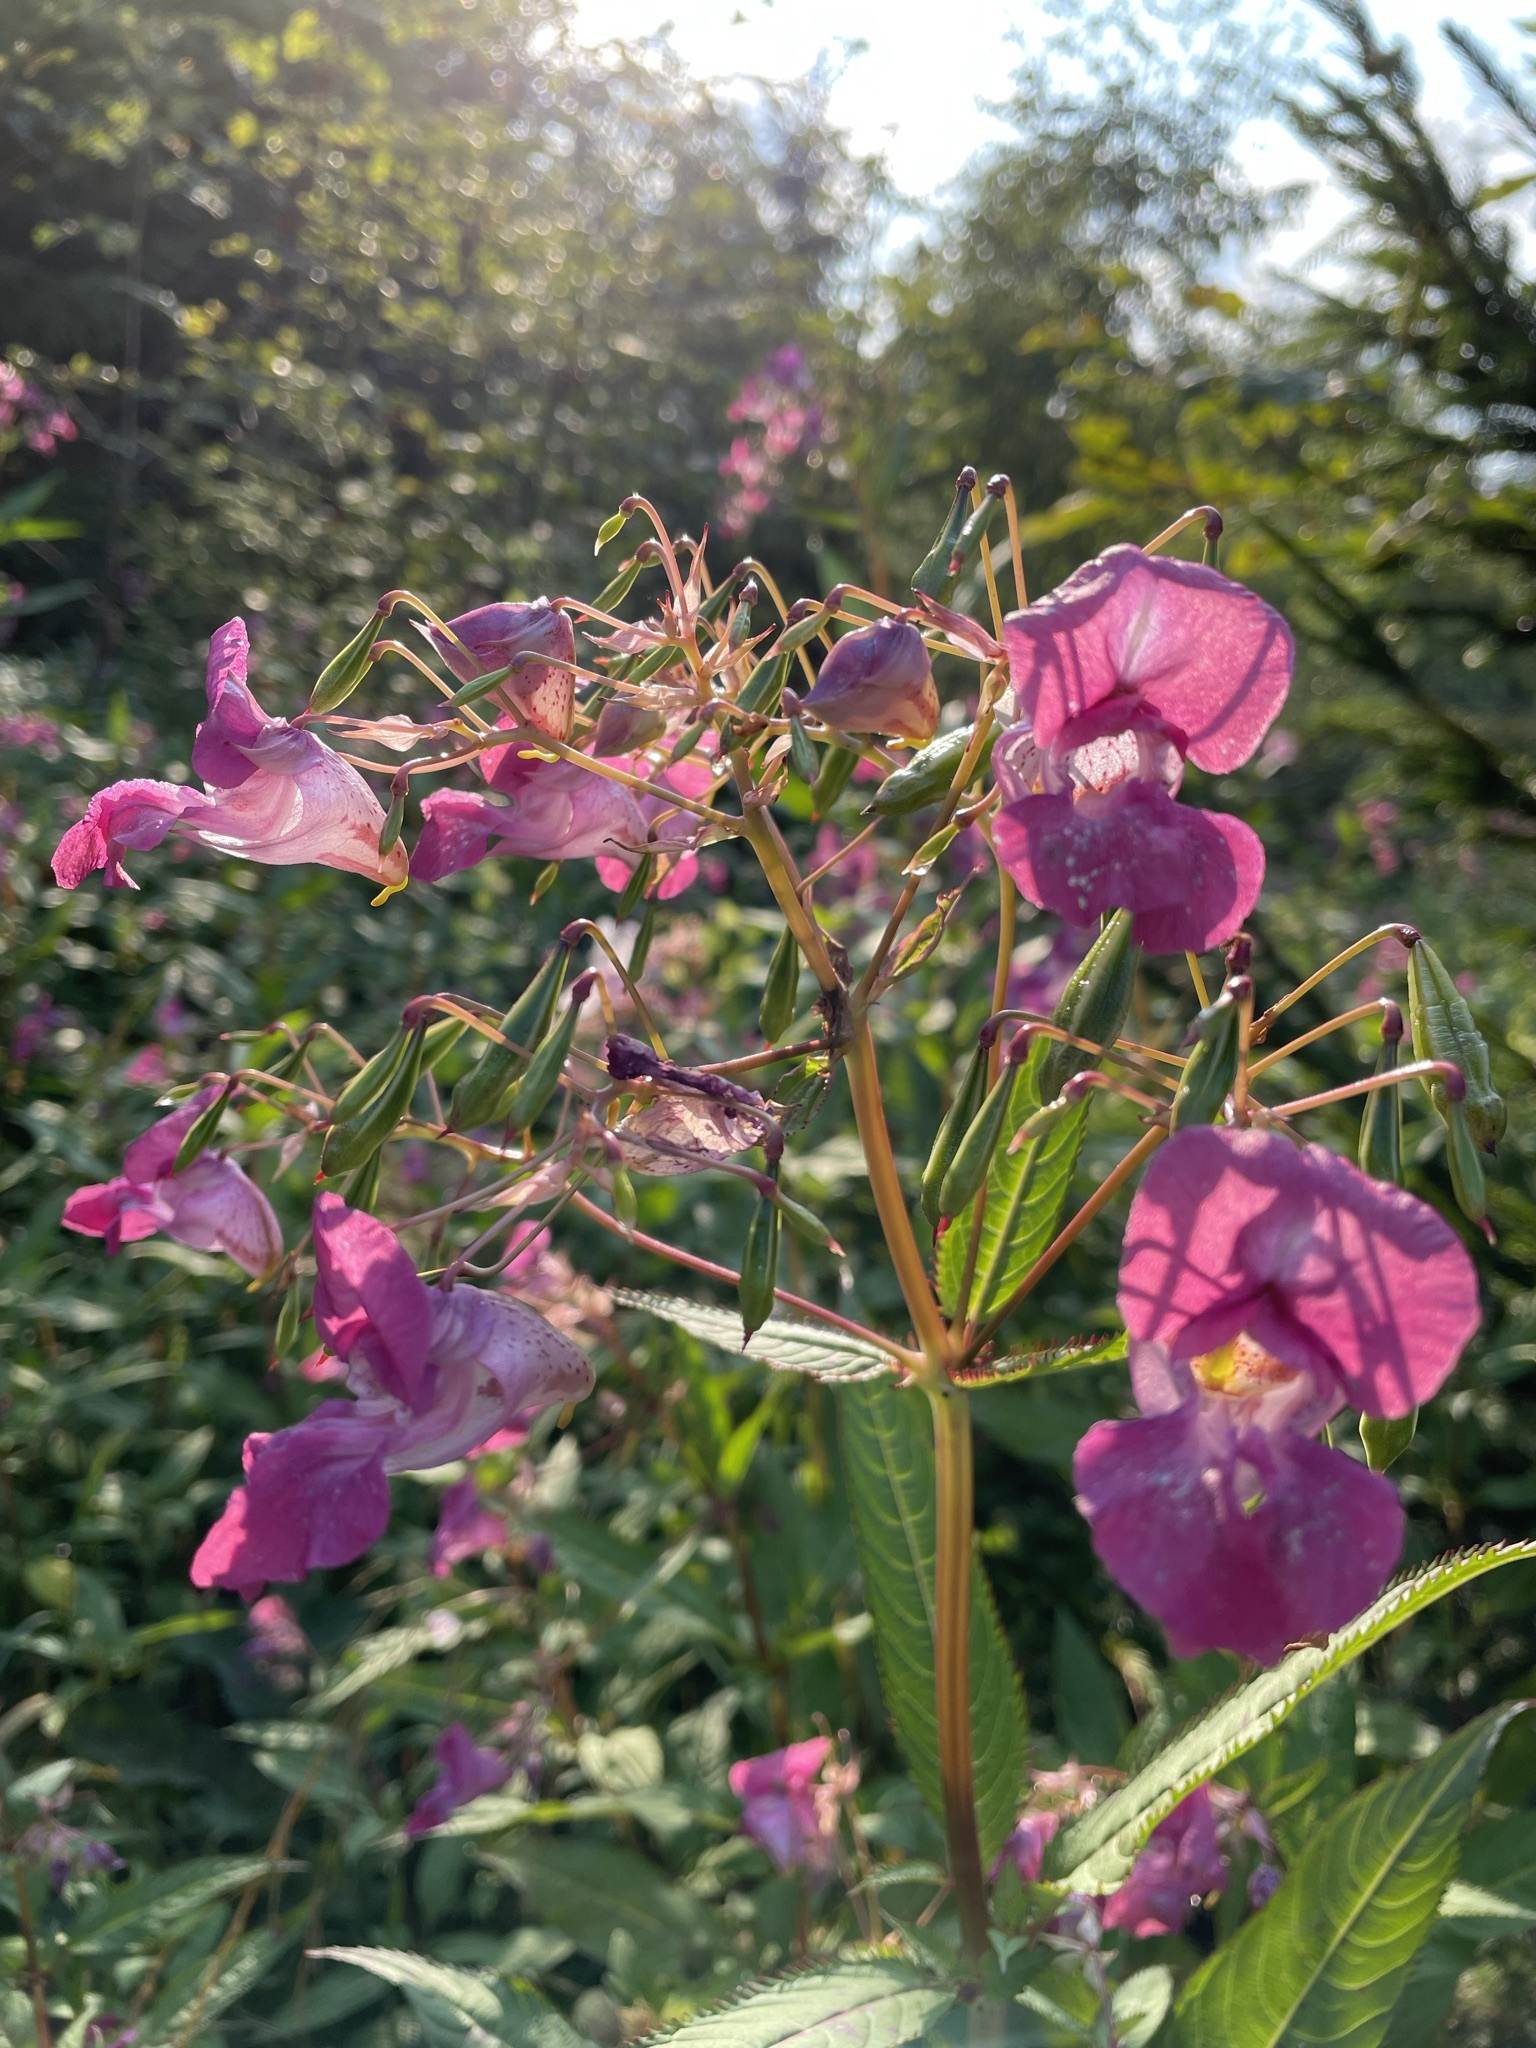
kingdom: Plantae
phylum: Tracheophyta
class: Magnoliopsida
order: Ericales
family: Balsaminaceae
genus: Impatiens
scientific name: Impatiens glandulifera
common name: Himalayan balsam
